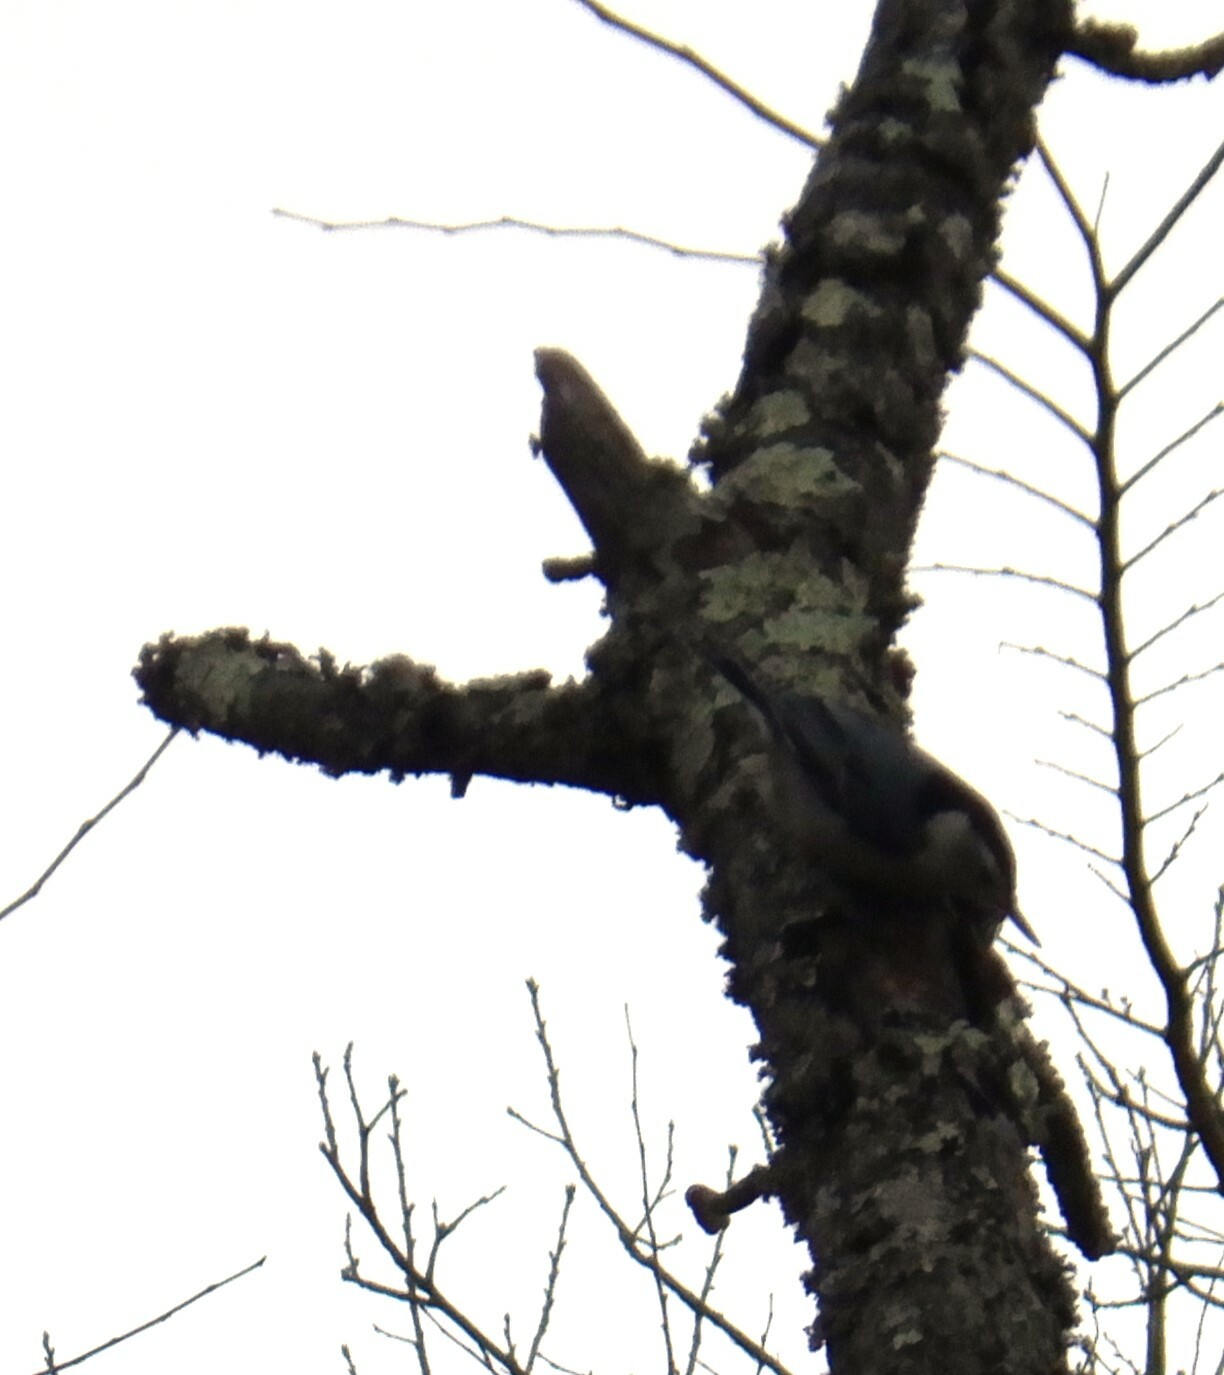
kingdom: Animalia
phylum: Chordata
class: Aves
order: Passeriformes
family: Sittidae
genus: Sitta
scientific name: Sitta carolinensis
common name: White-breasted nuthatch
